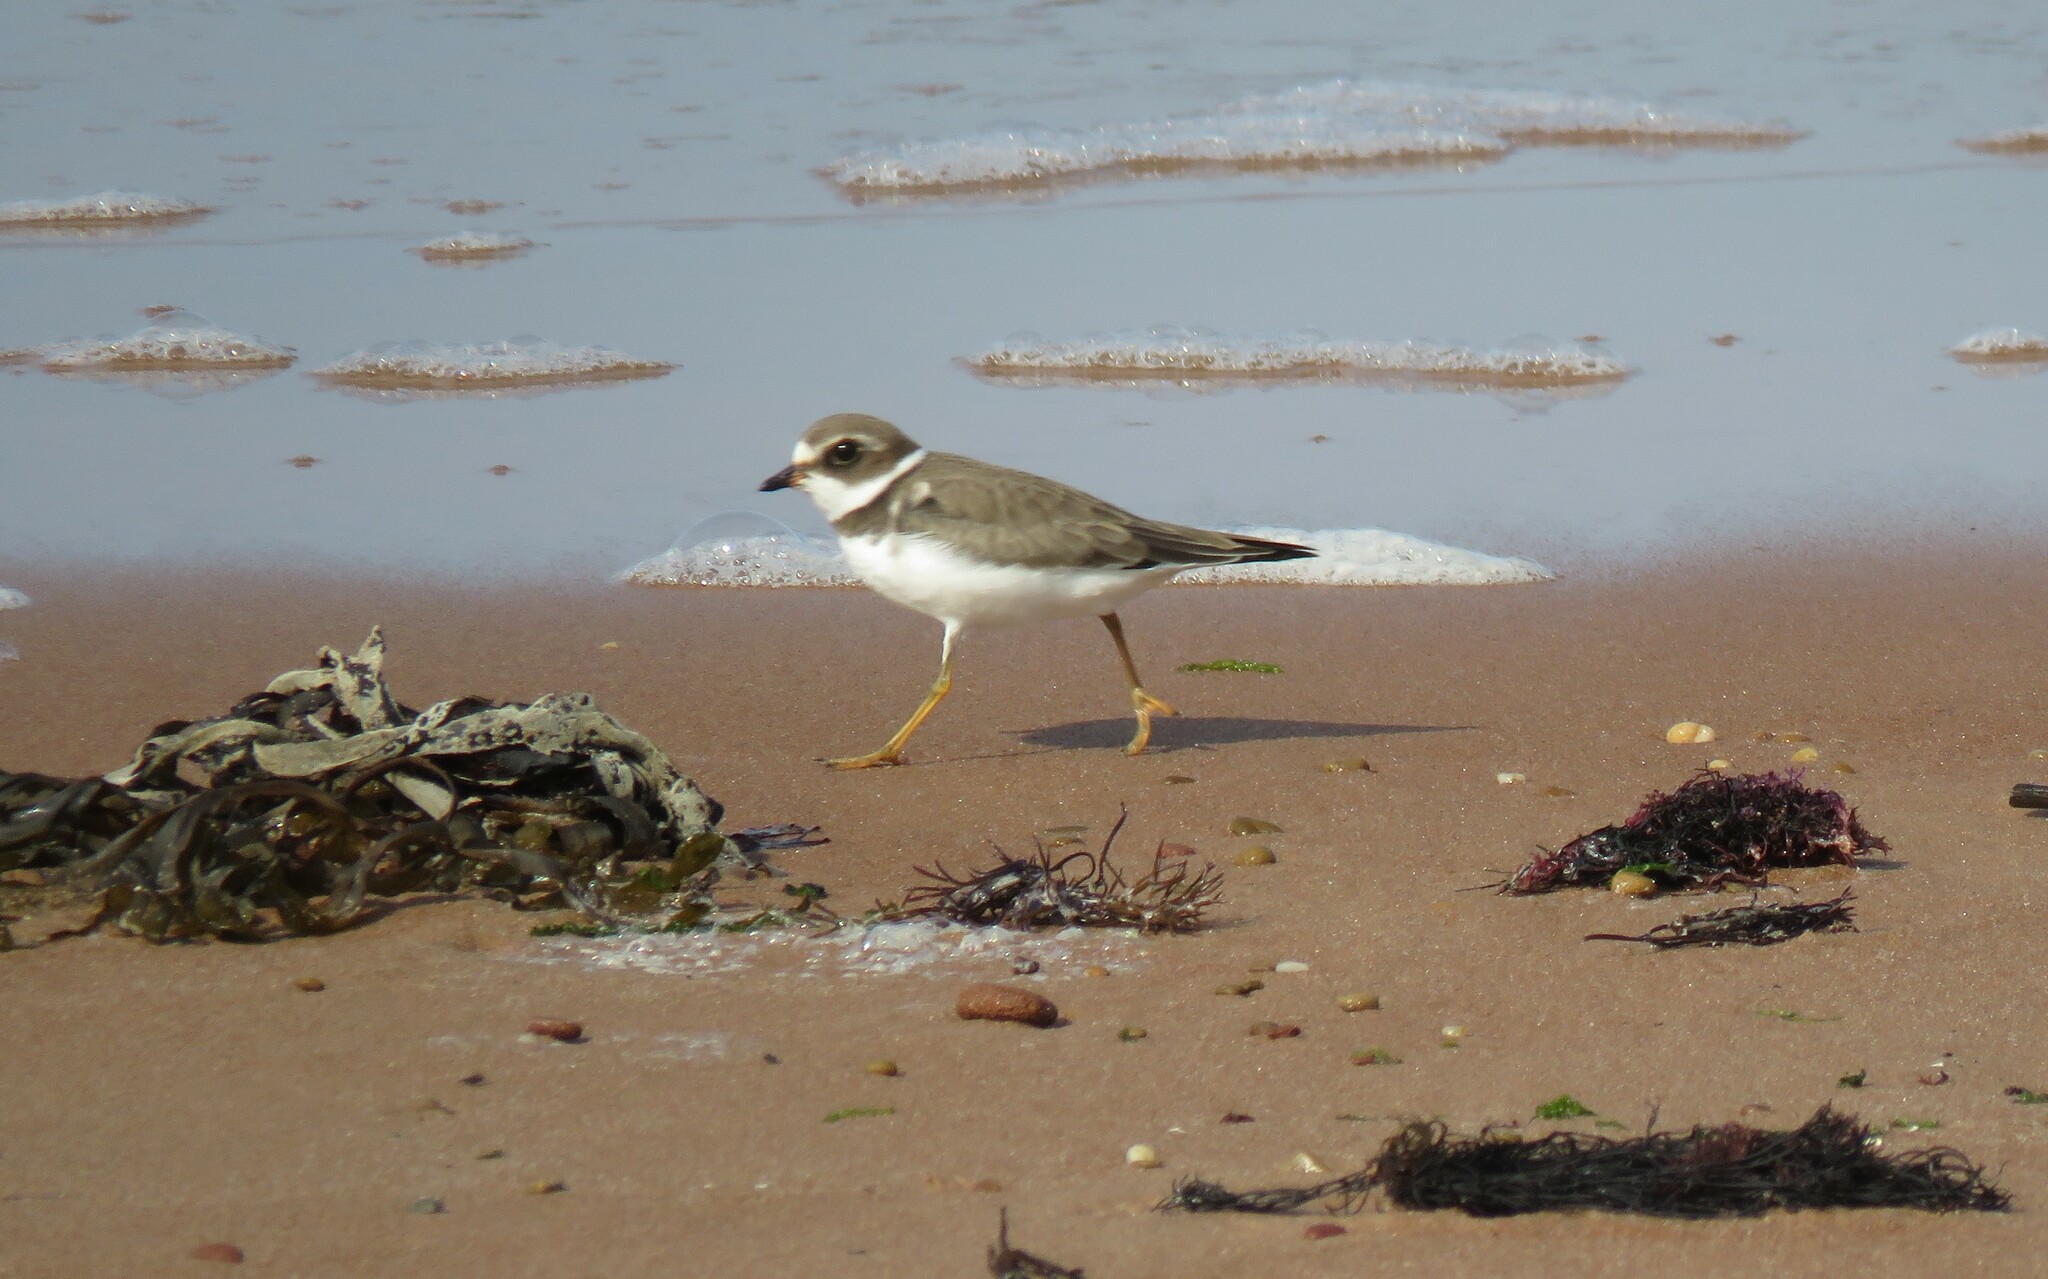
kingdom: Animalia
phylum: Chordata
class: Aves
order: Charadriiformes
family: Charadriidae
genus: Charadrius
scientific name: Charadrius semipalmatus
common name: Semipalmated plover
